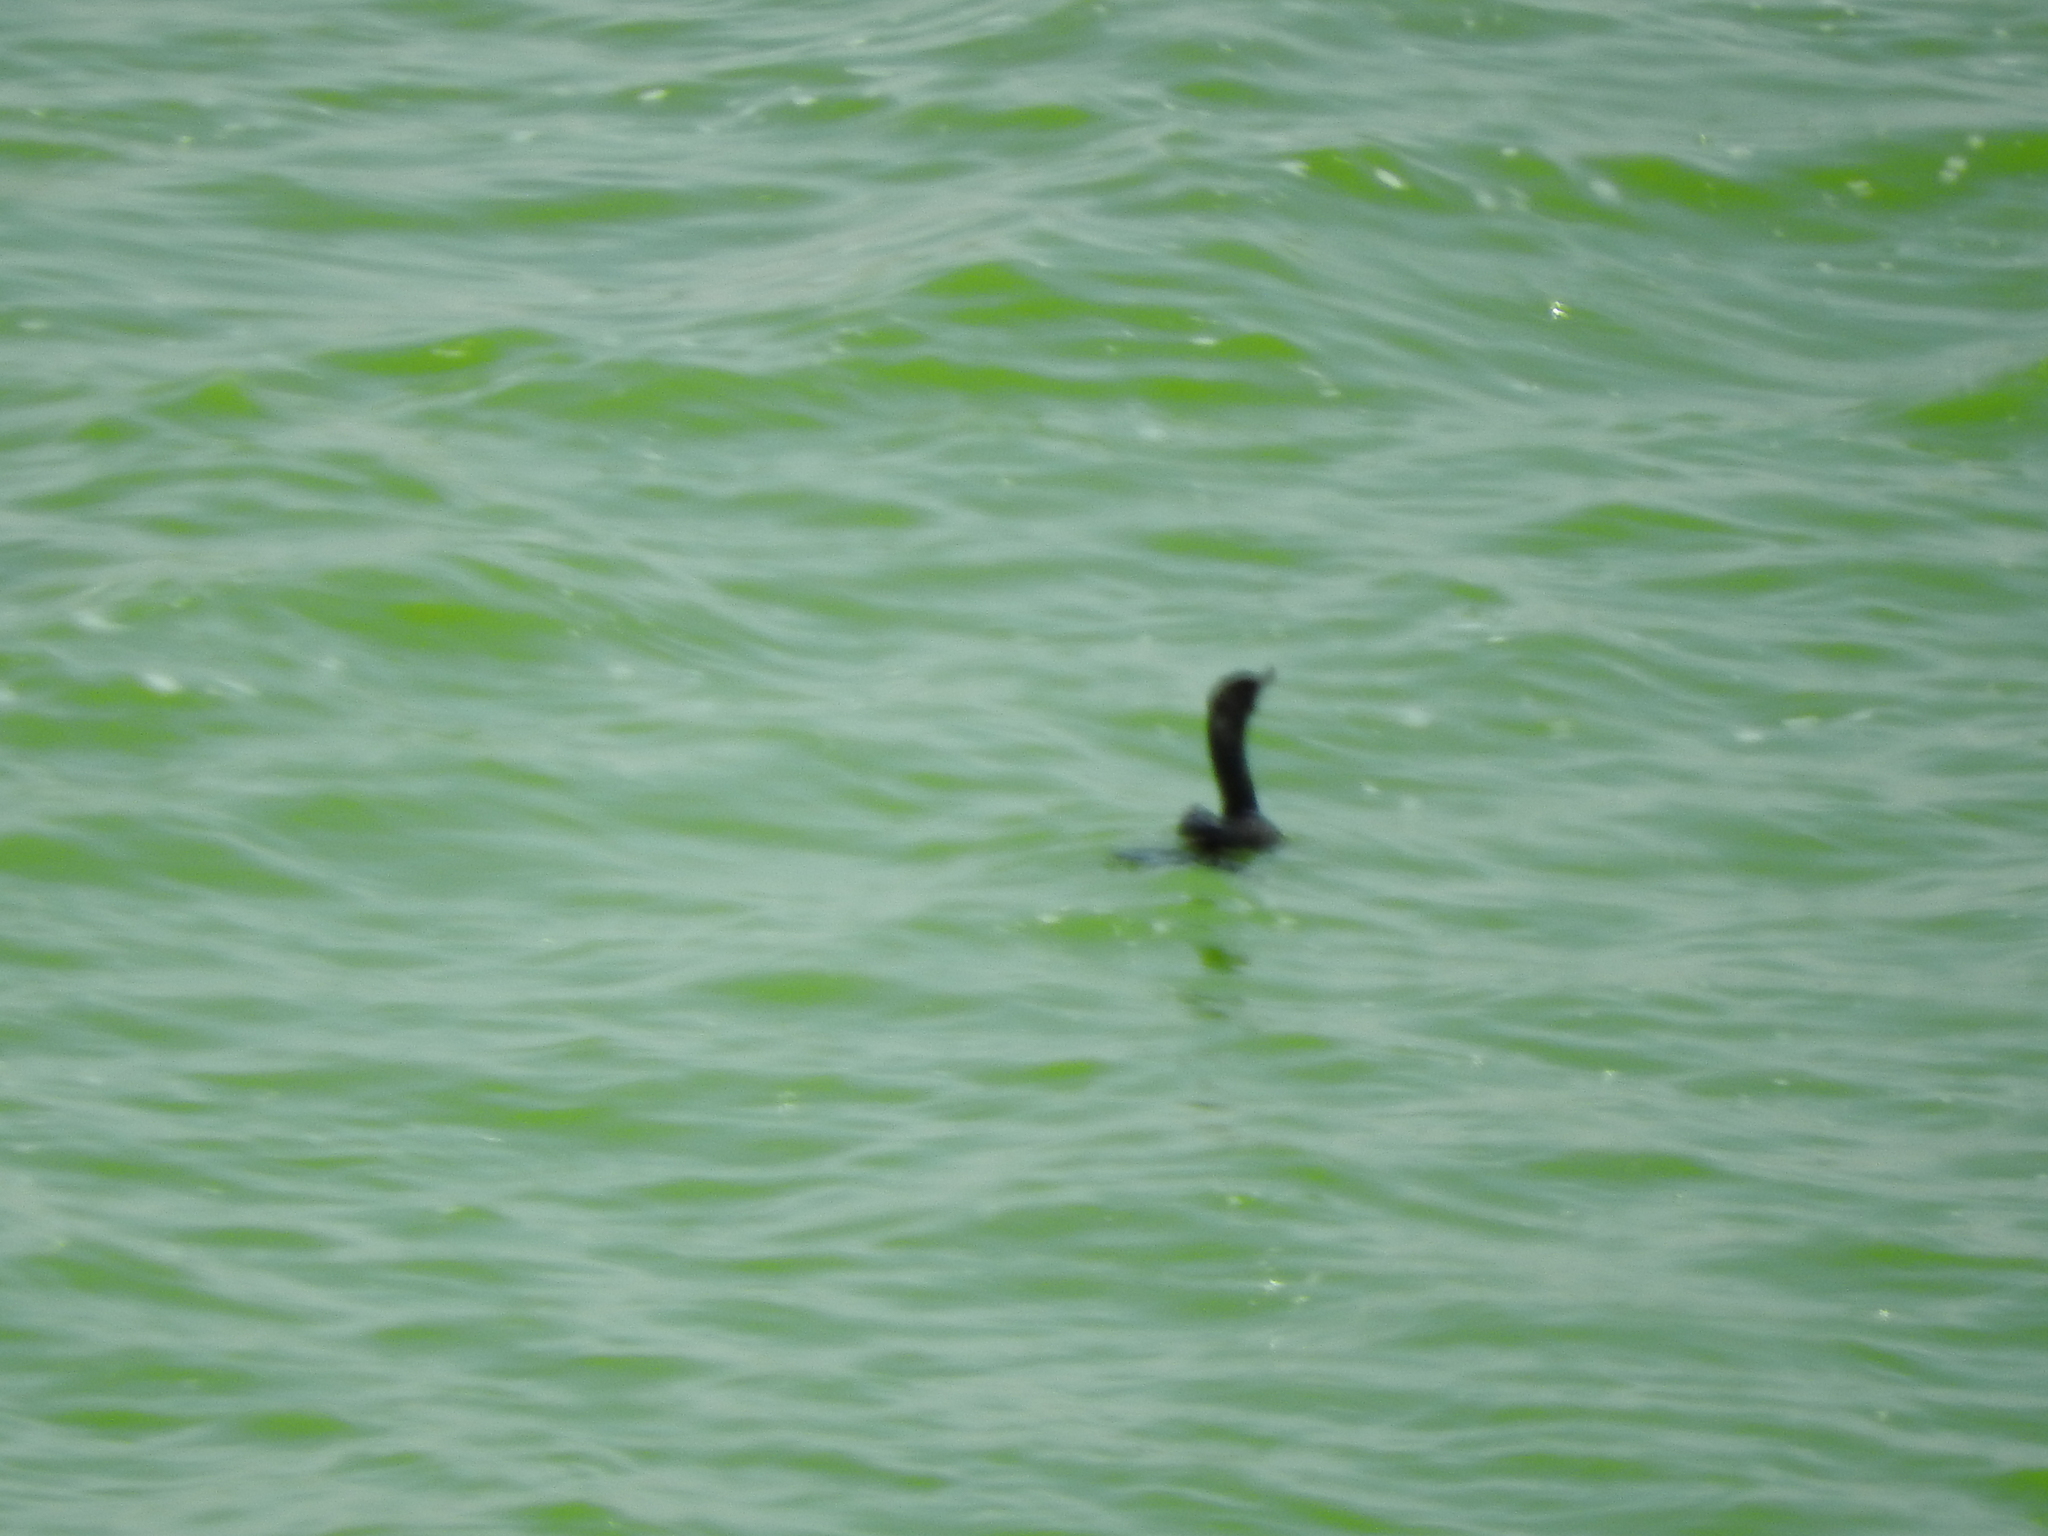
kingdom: Animalia
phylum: Chordata
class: Aves
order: Suliformes
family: Phalacrocoracidae
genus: Phalacrocorax
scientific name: Phalacrocorax brasilianus
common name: Neotropic cormorant
